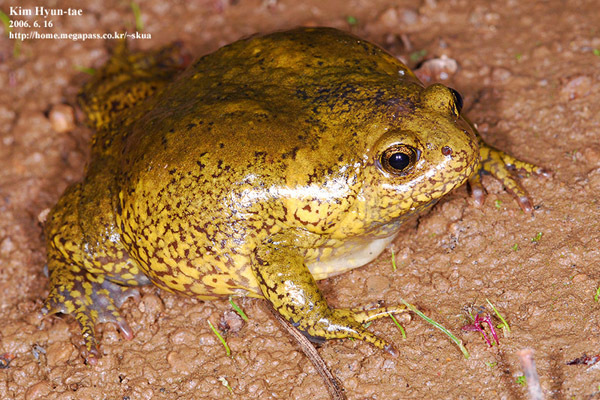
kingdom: Animalia
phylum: Chordata
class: Amphibia
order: Anura
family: Microhylidae
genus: Kaloula
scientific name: Kaloula borealis
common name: Boreal digging frog
